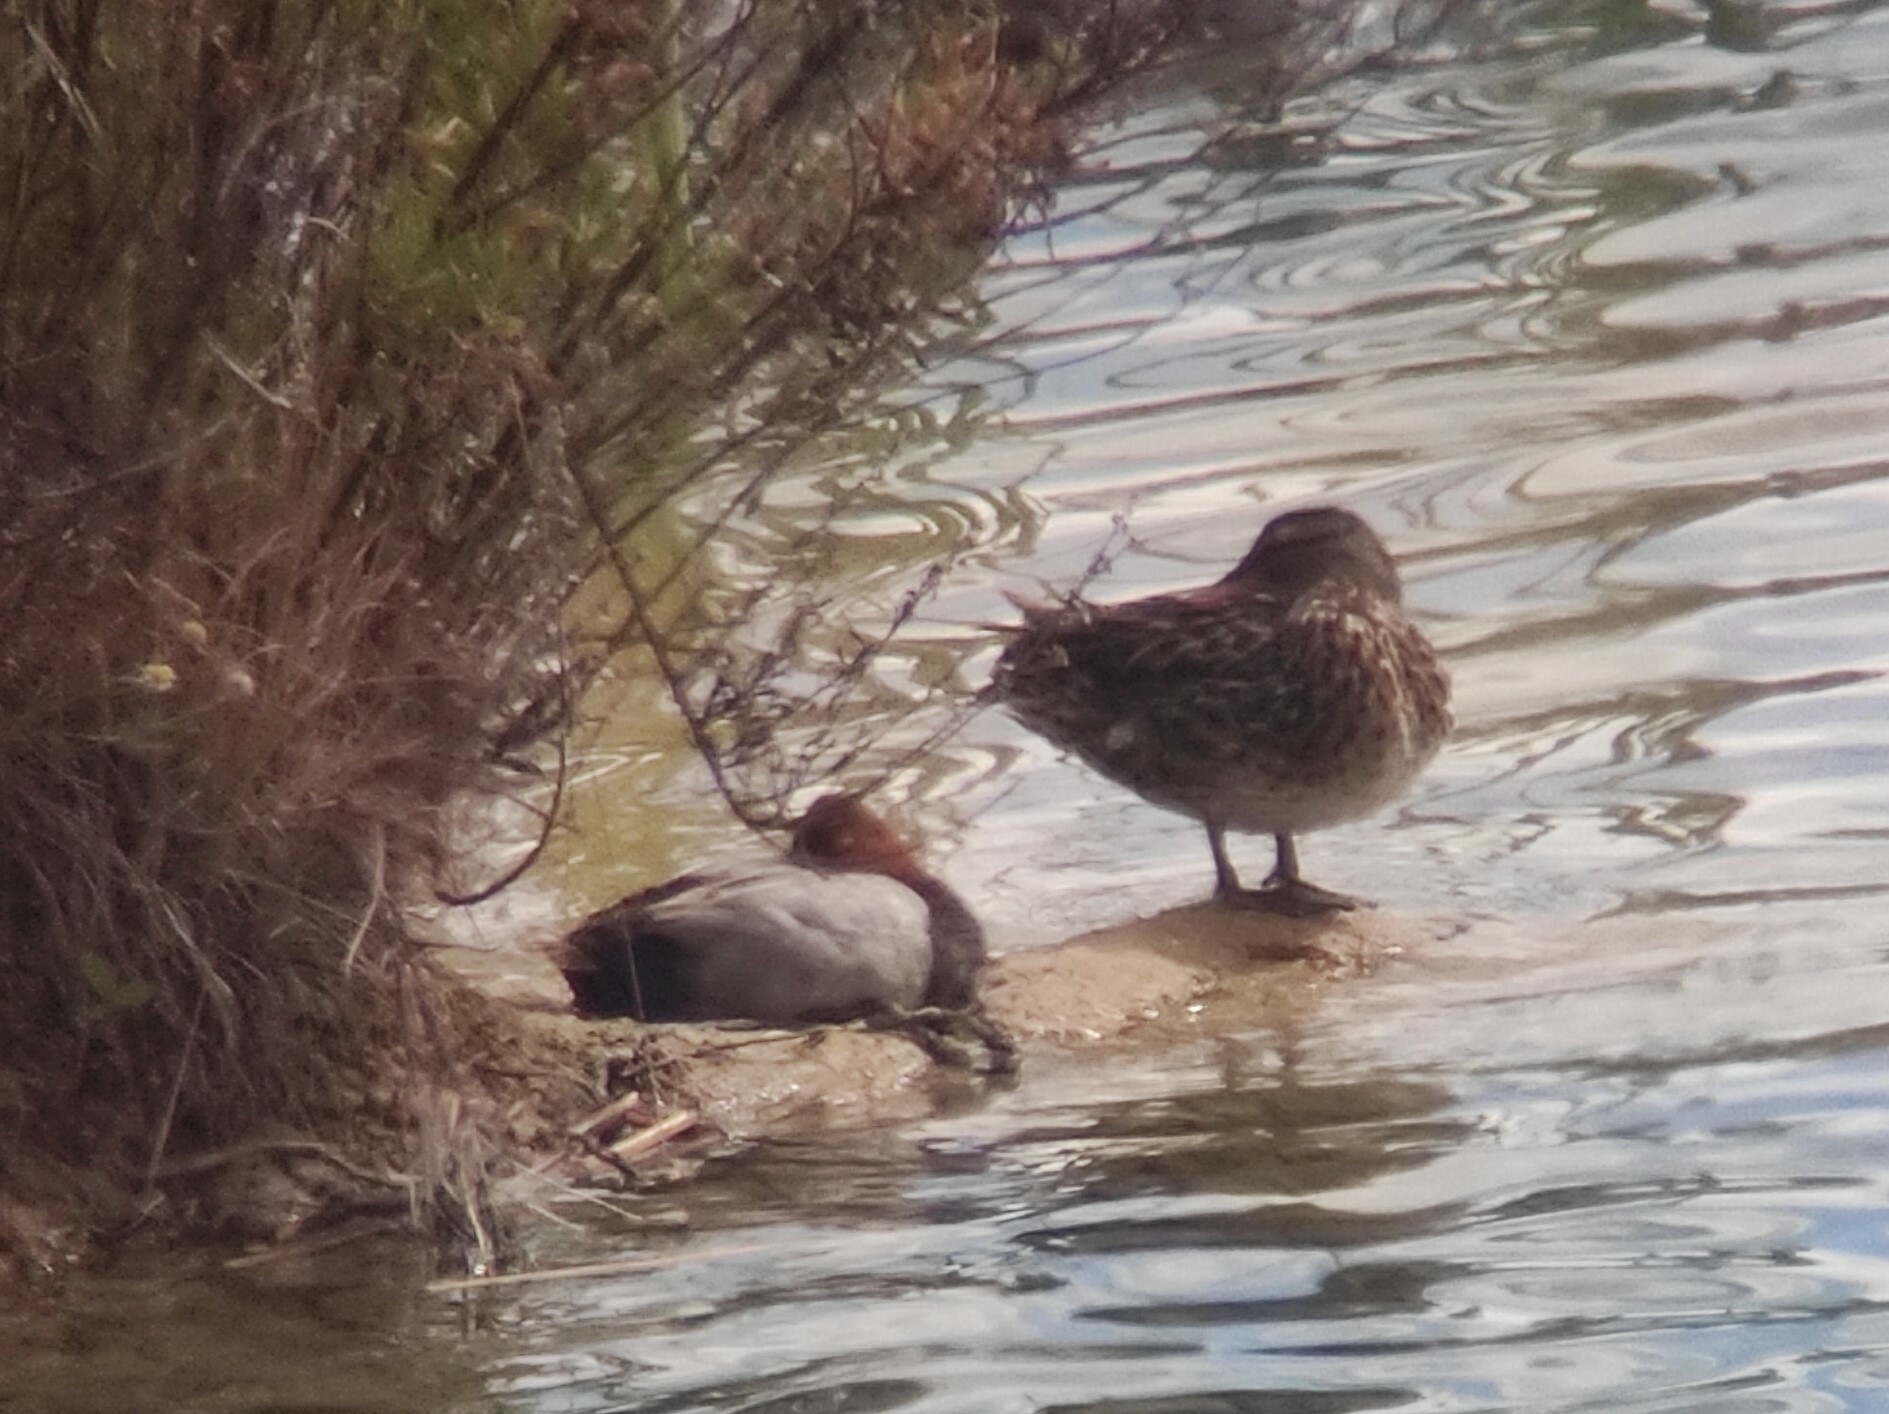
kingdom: Animalia
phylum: Chordata
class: Aves
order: Anseriformes
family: Anatidae
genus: Aythya
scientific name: Aythya ferina
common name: Common pochard
